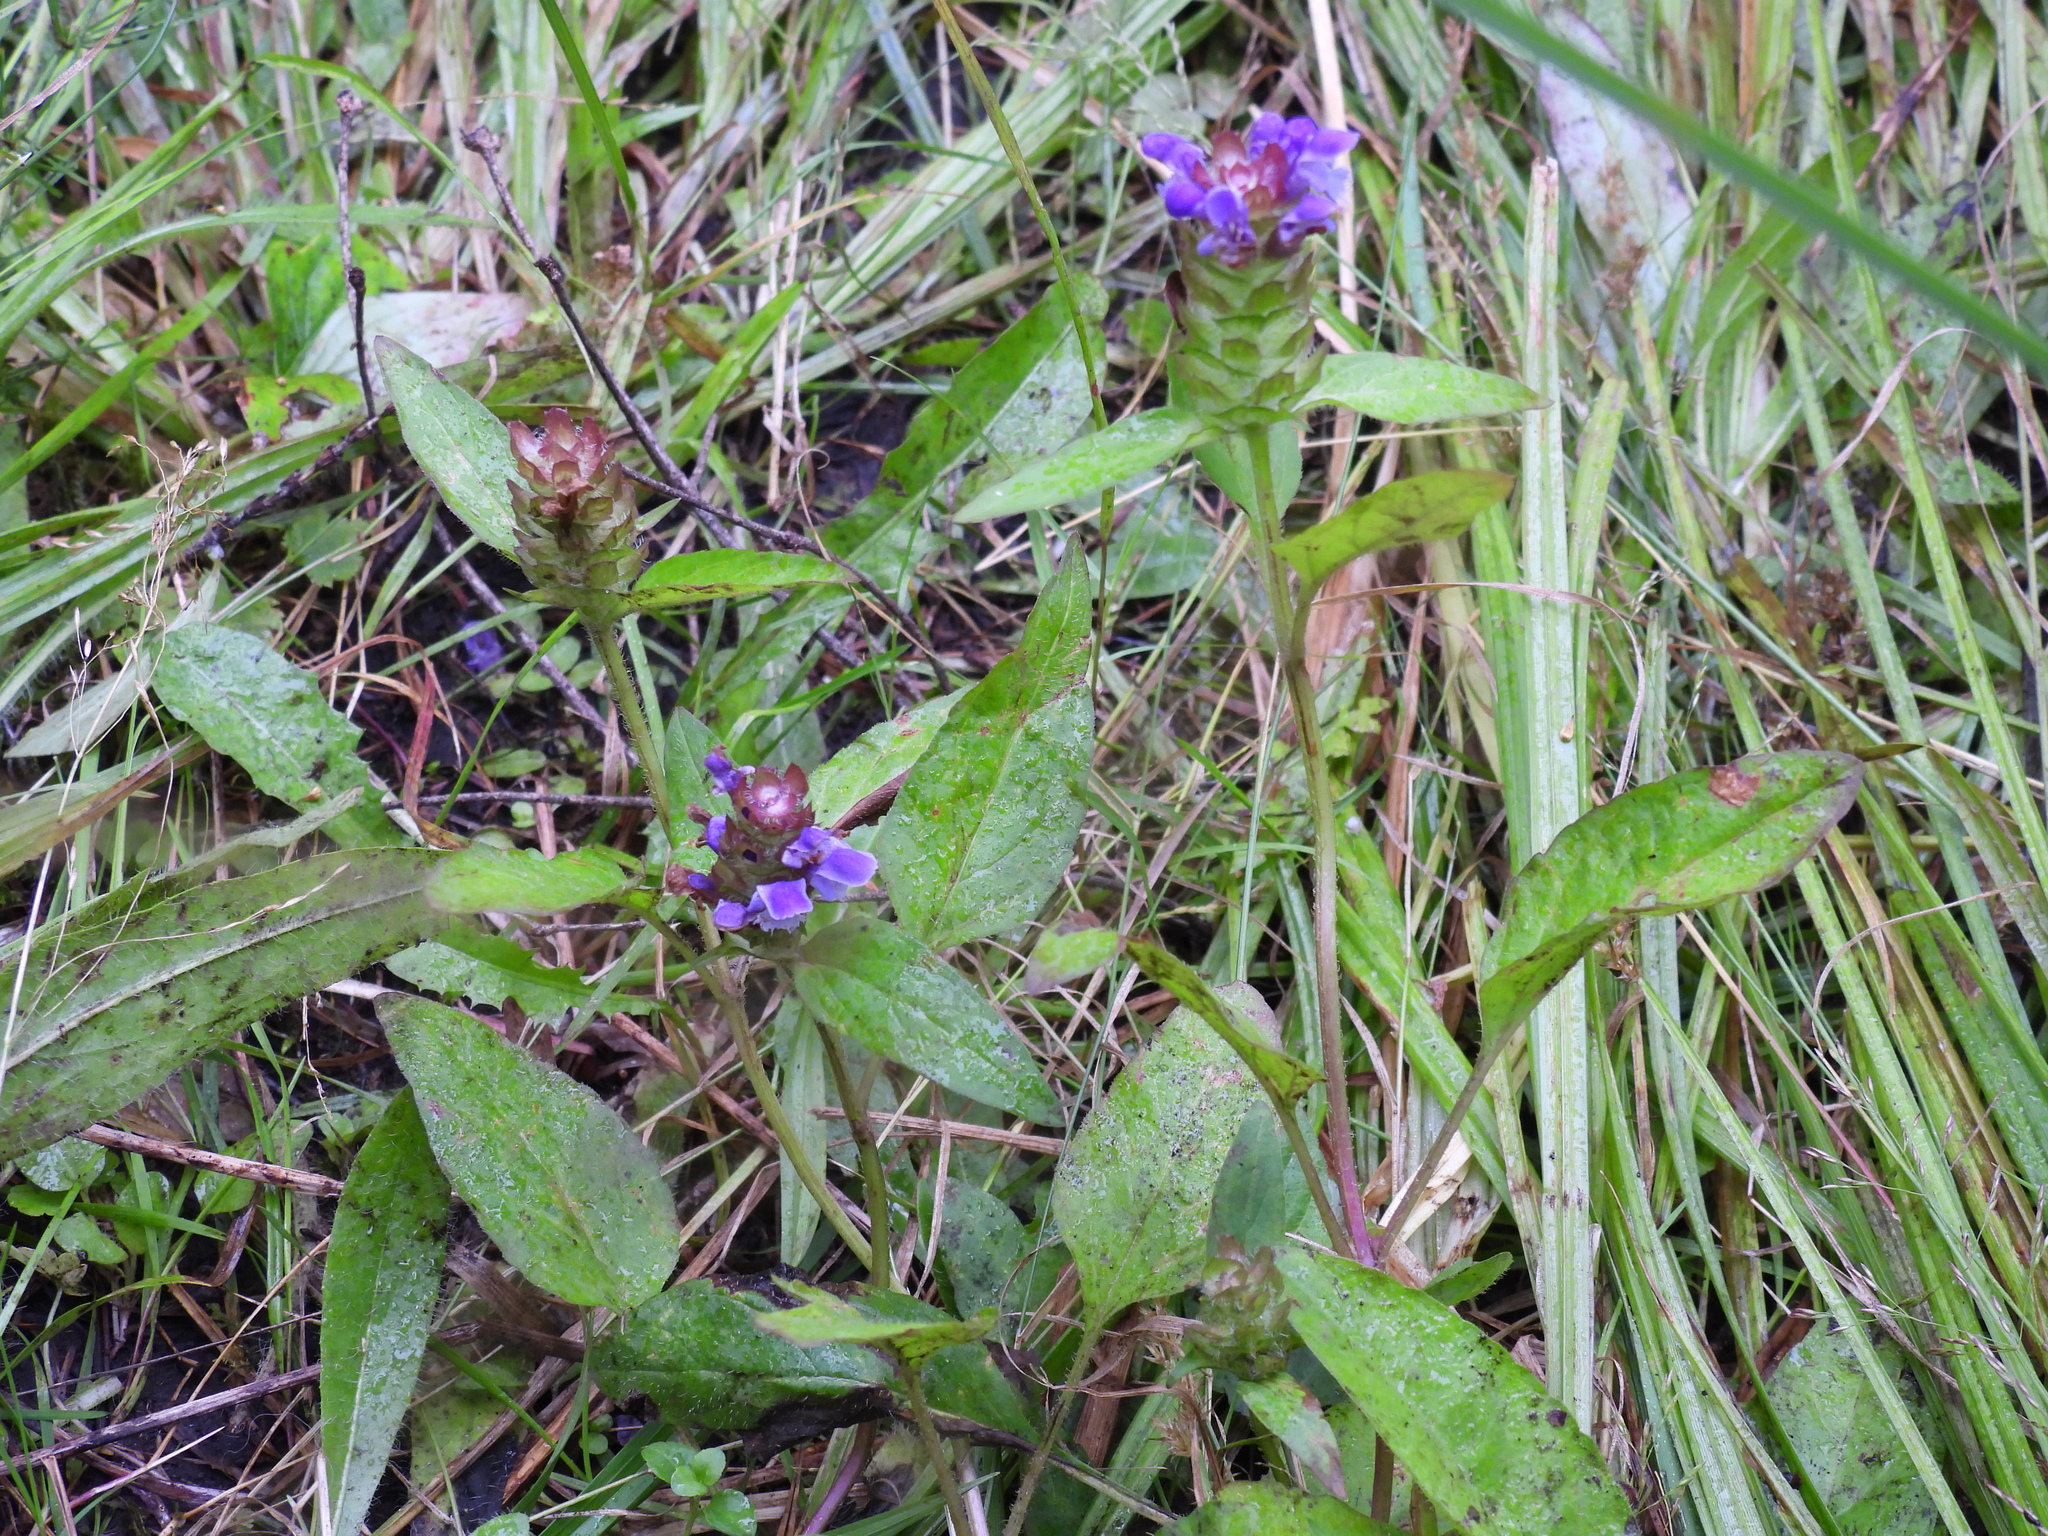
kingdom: Plantae
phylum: Tracheophyta
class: Magnoliopsida
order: Lamiales
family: Lamiaceae
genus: Prunella
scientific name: Prunella vulgaris
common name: Heal-all
